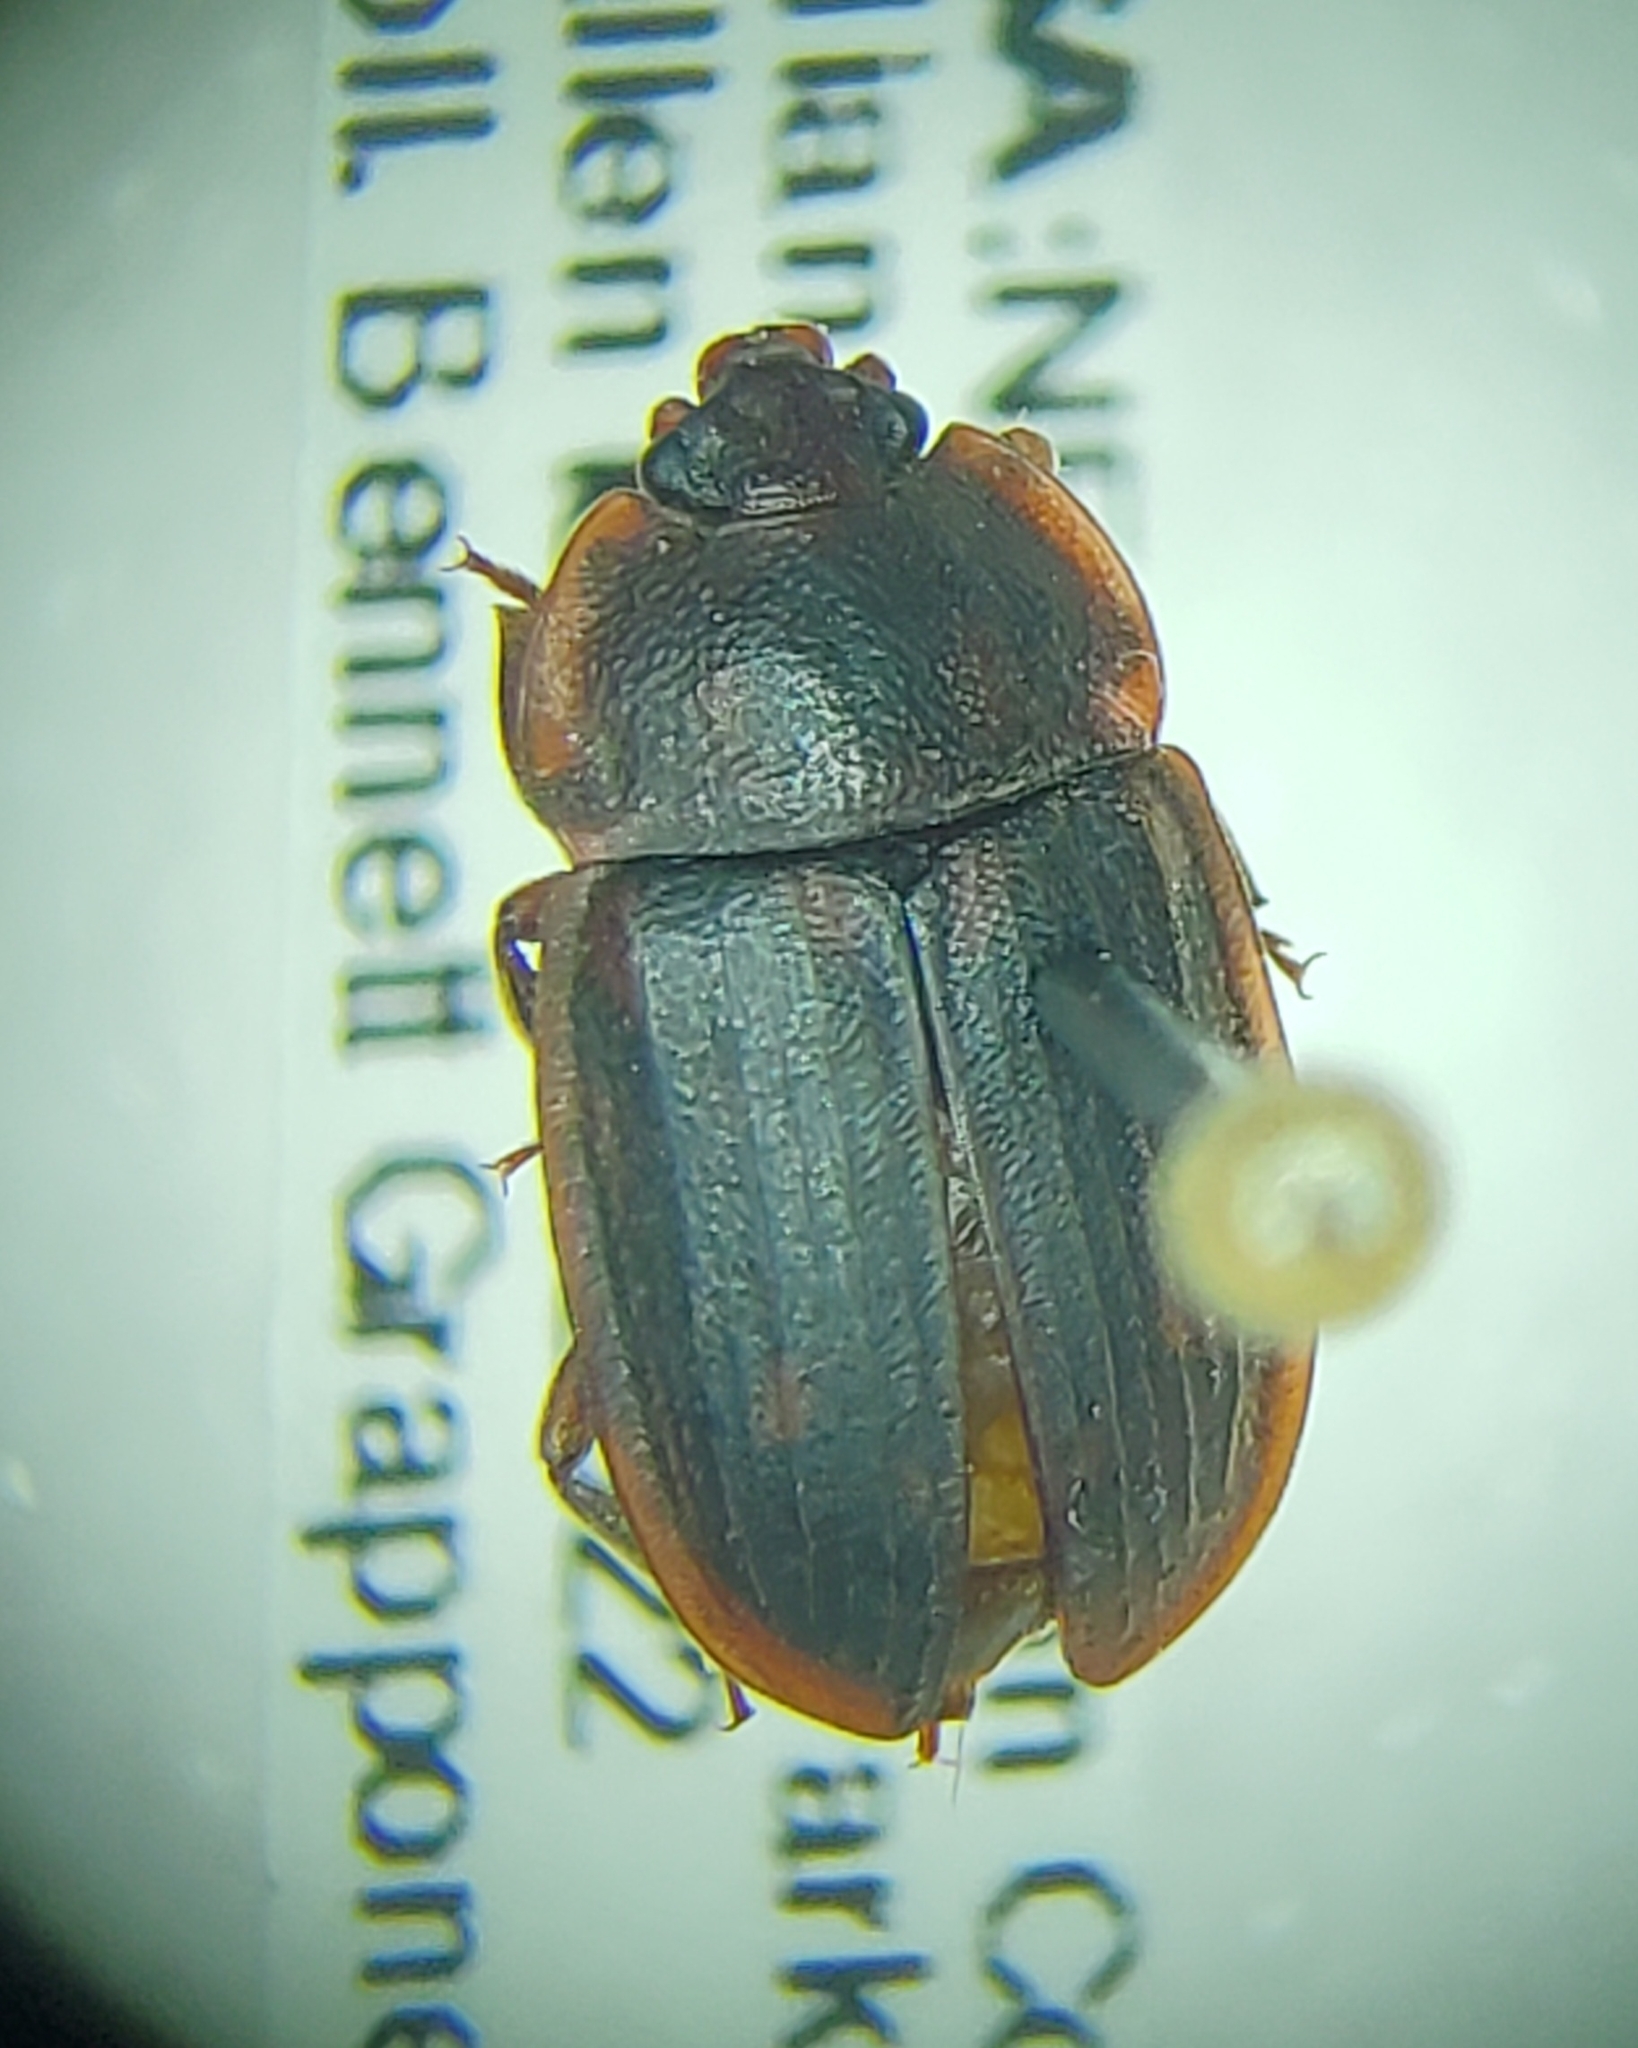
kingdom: Animalia
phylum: Arthropoda
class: Insecta
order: Coleoptera
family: Nitidulidae
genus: Phenolia
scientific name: Phenolia grossa
